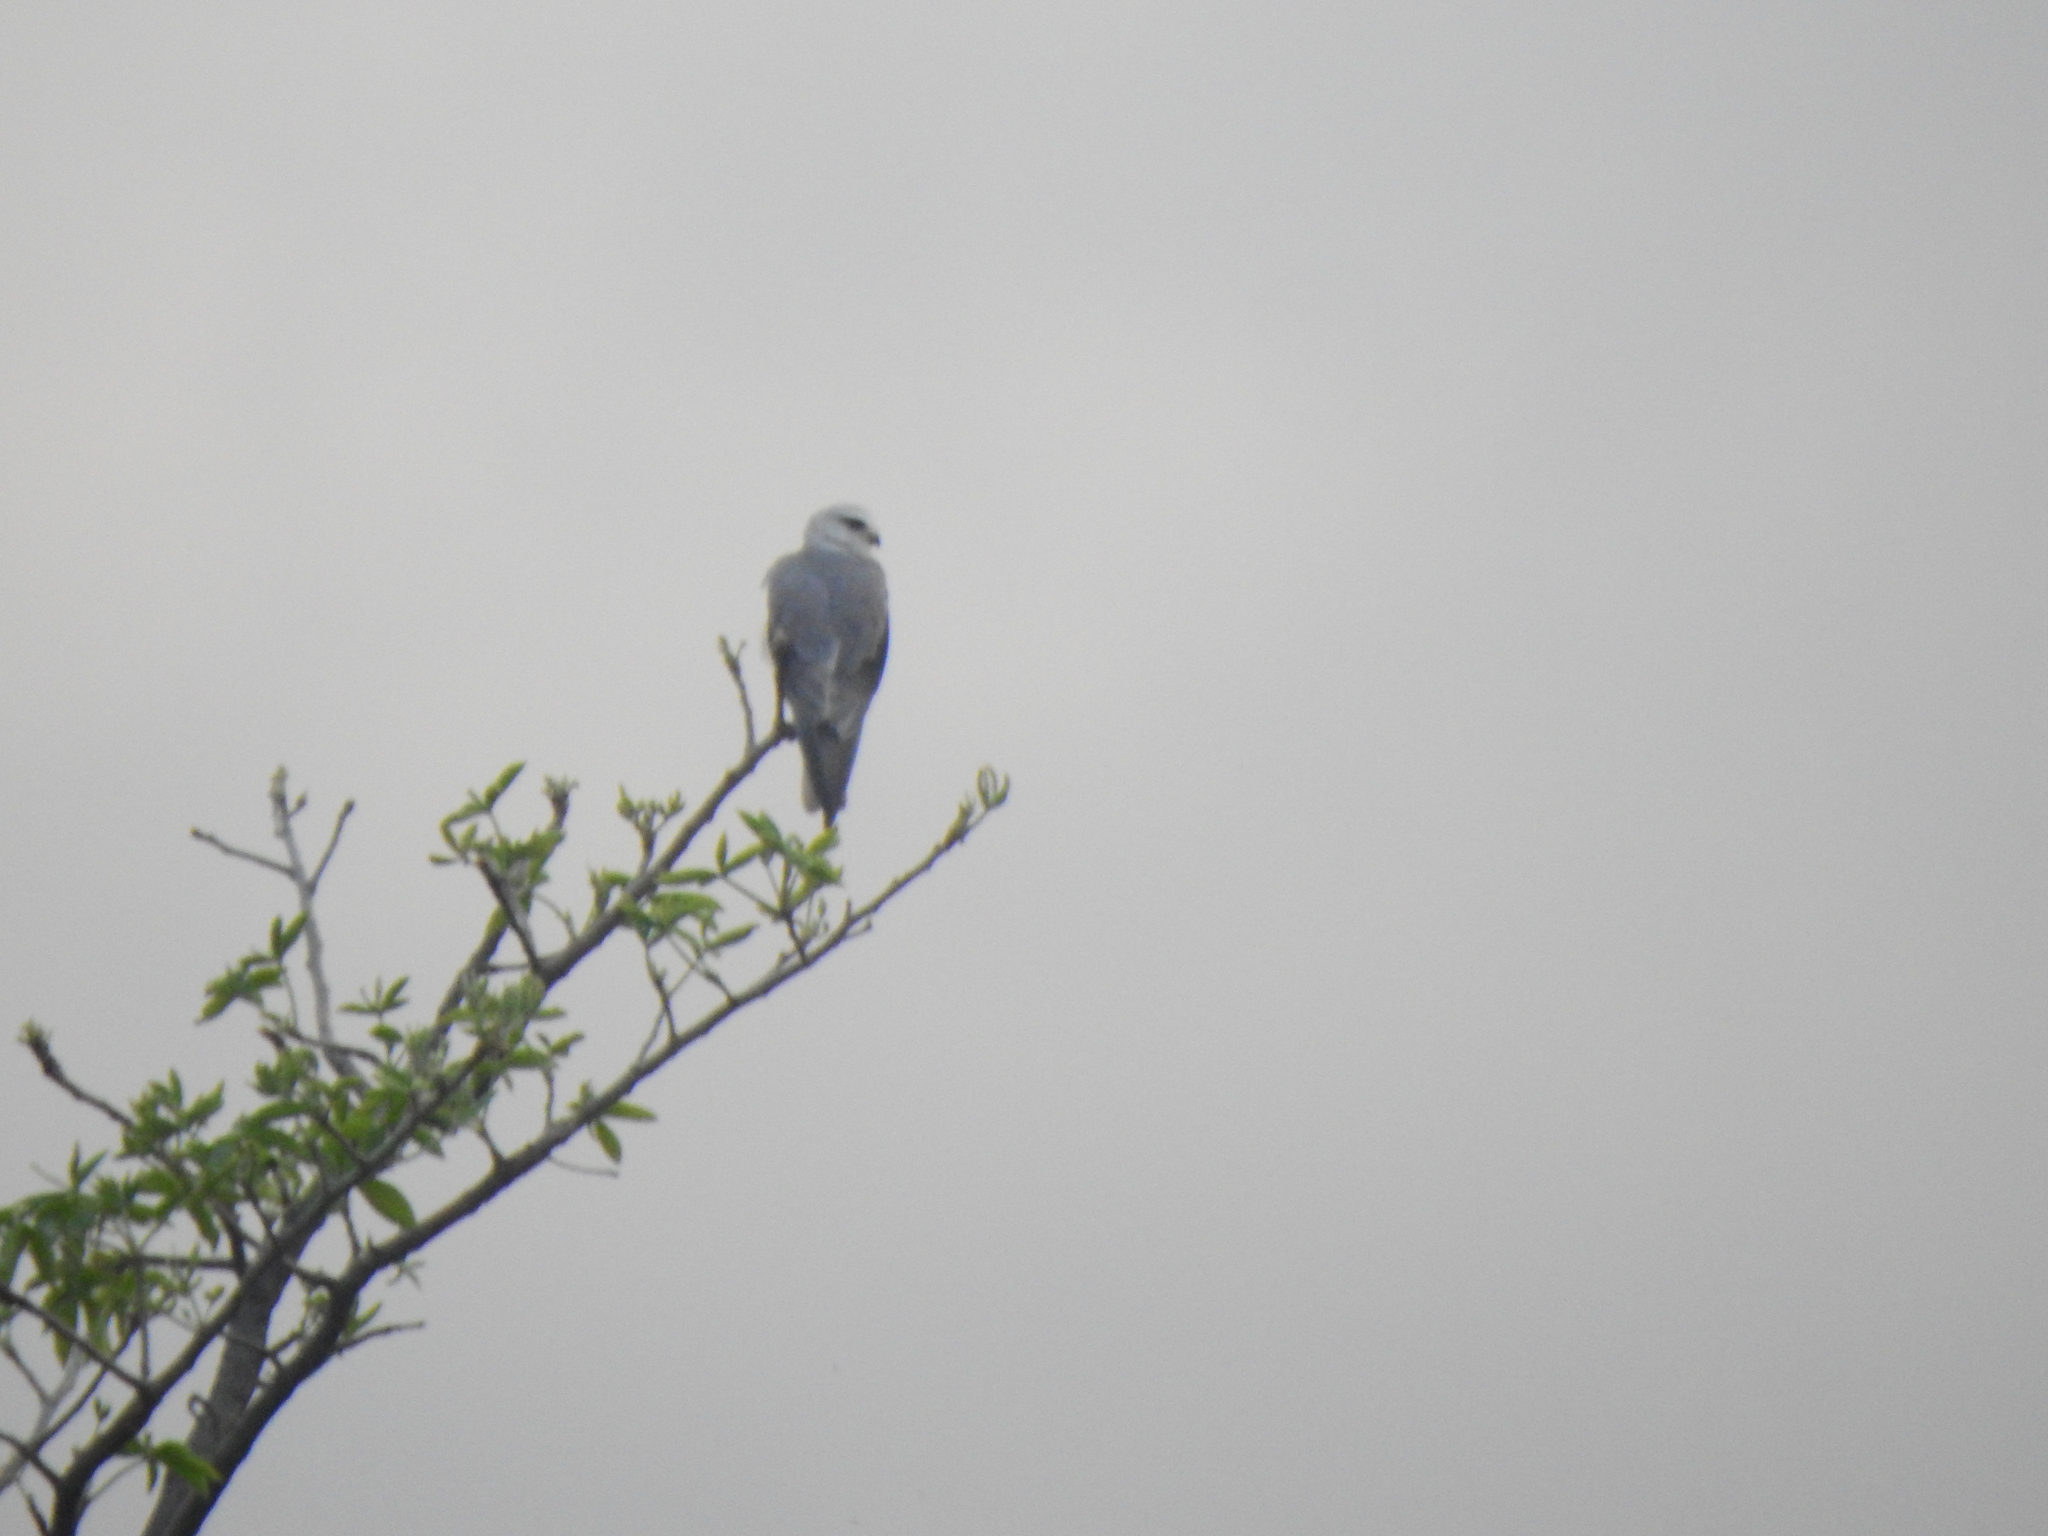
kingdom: Animalia
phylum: Chordata
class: Aves
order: Accipitriformes
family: Accipitridae
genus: Elanus
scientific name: Elanus caeruleus
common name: Black-winged kite
